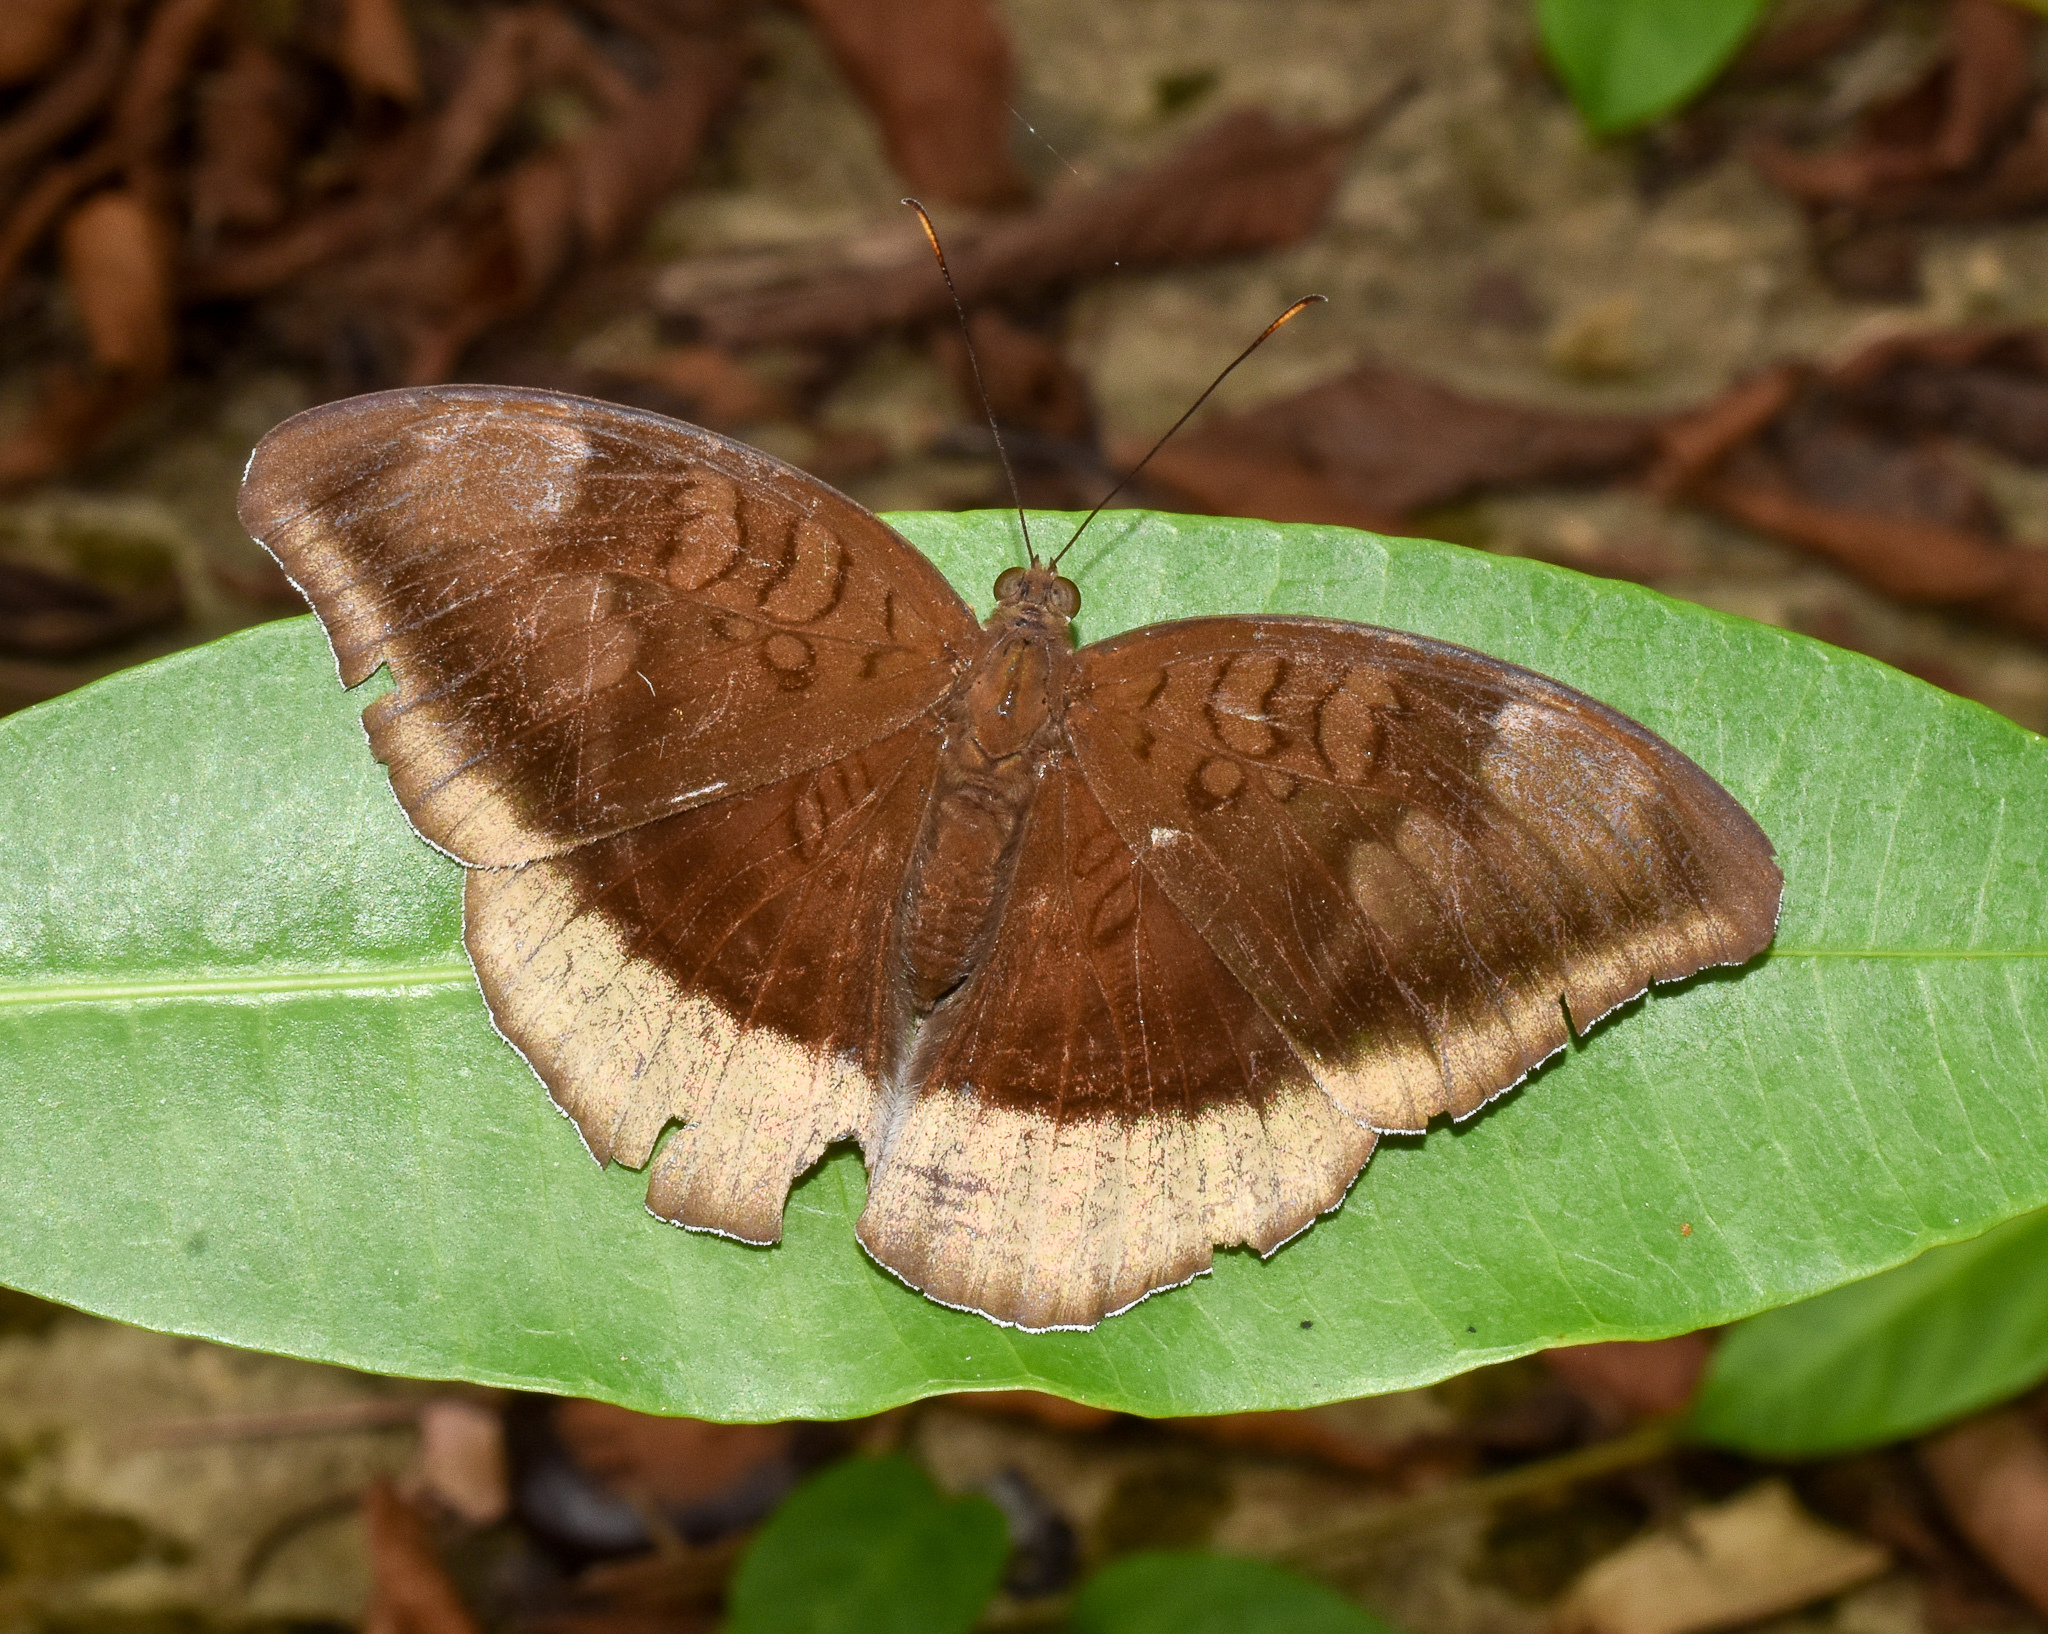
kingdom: Animalia
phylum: Arthropoda
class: Insecta
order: Lepidoptera
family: Nymphalidae
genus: Tanaecia
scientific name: Tanaecia lepidea
